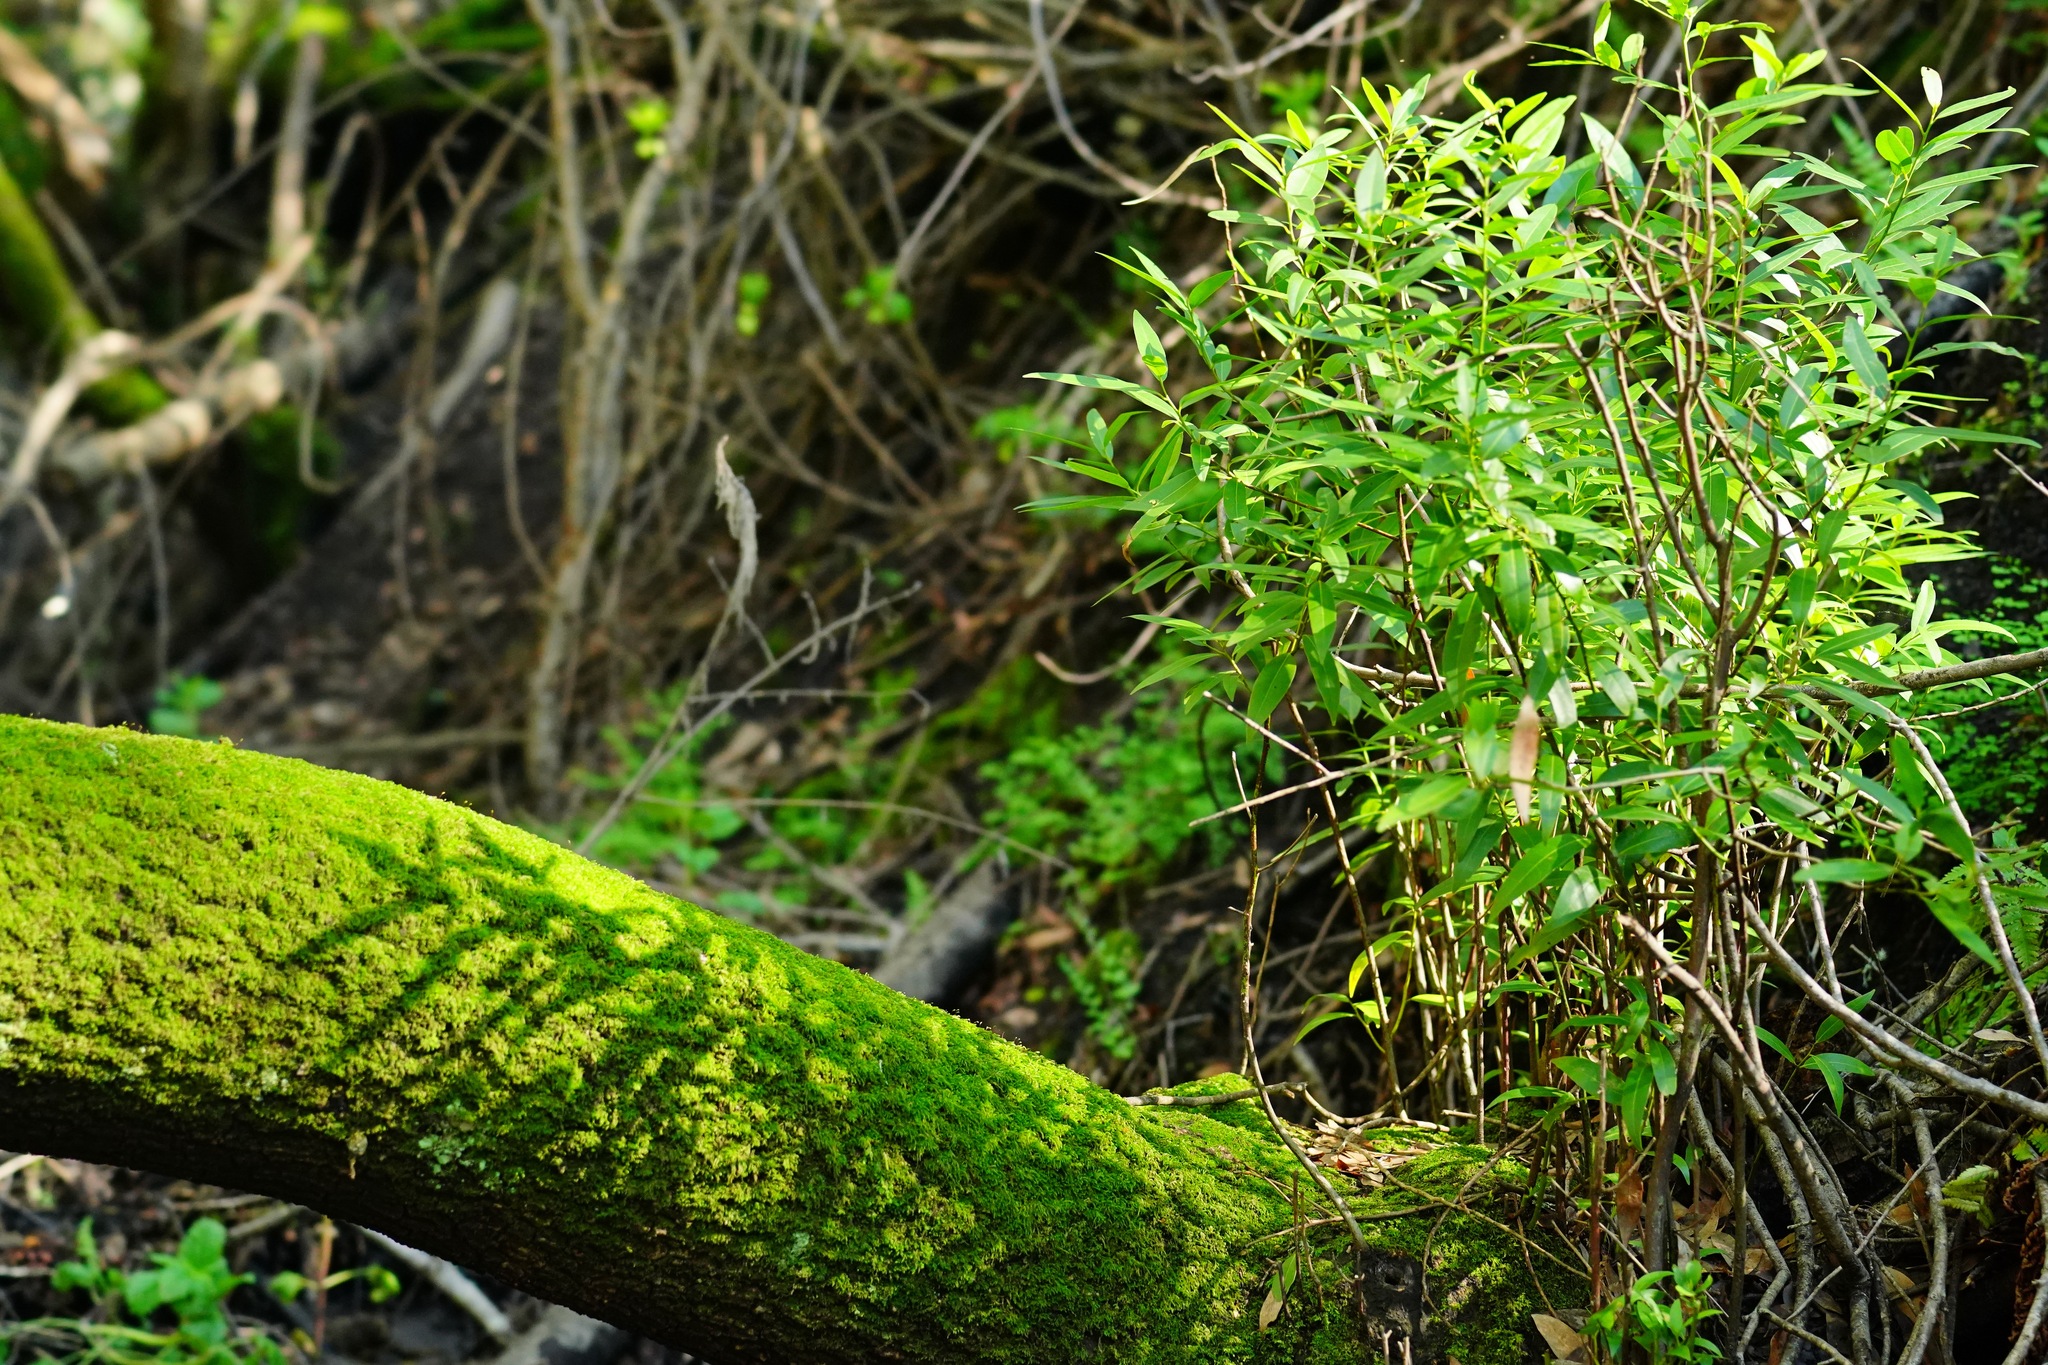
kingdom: Plantae
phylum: Tracheophyta
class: Magnoliopsida
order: Laurales
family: Lauraceae
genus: Umbellularia
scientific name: Umbellularia californica
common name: California bay
